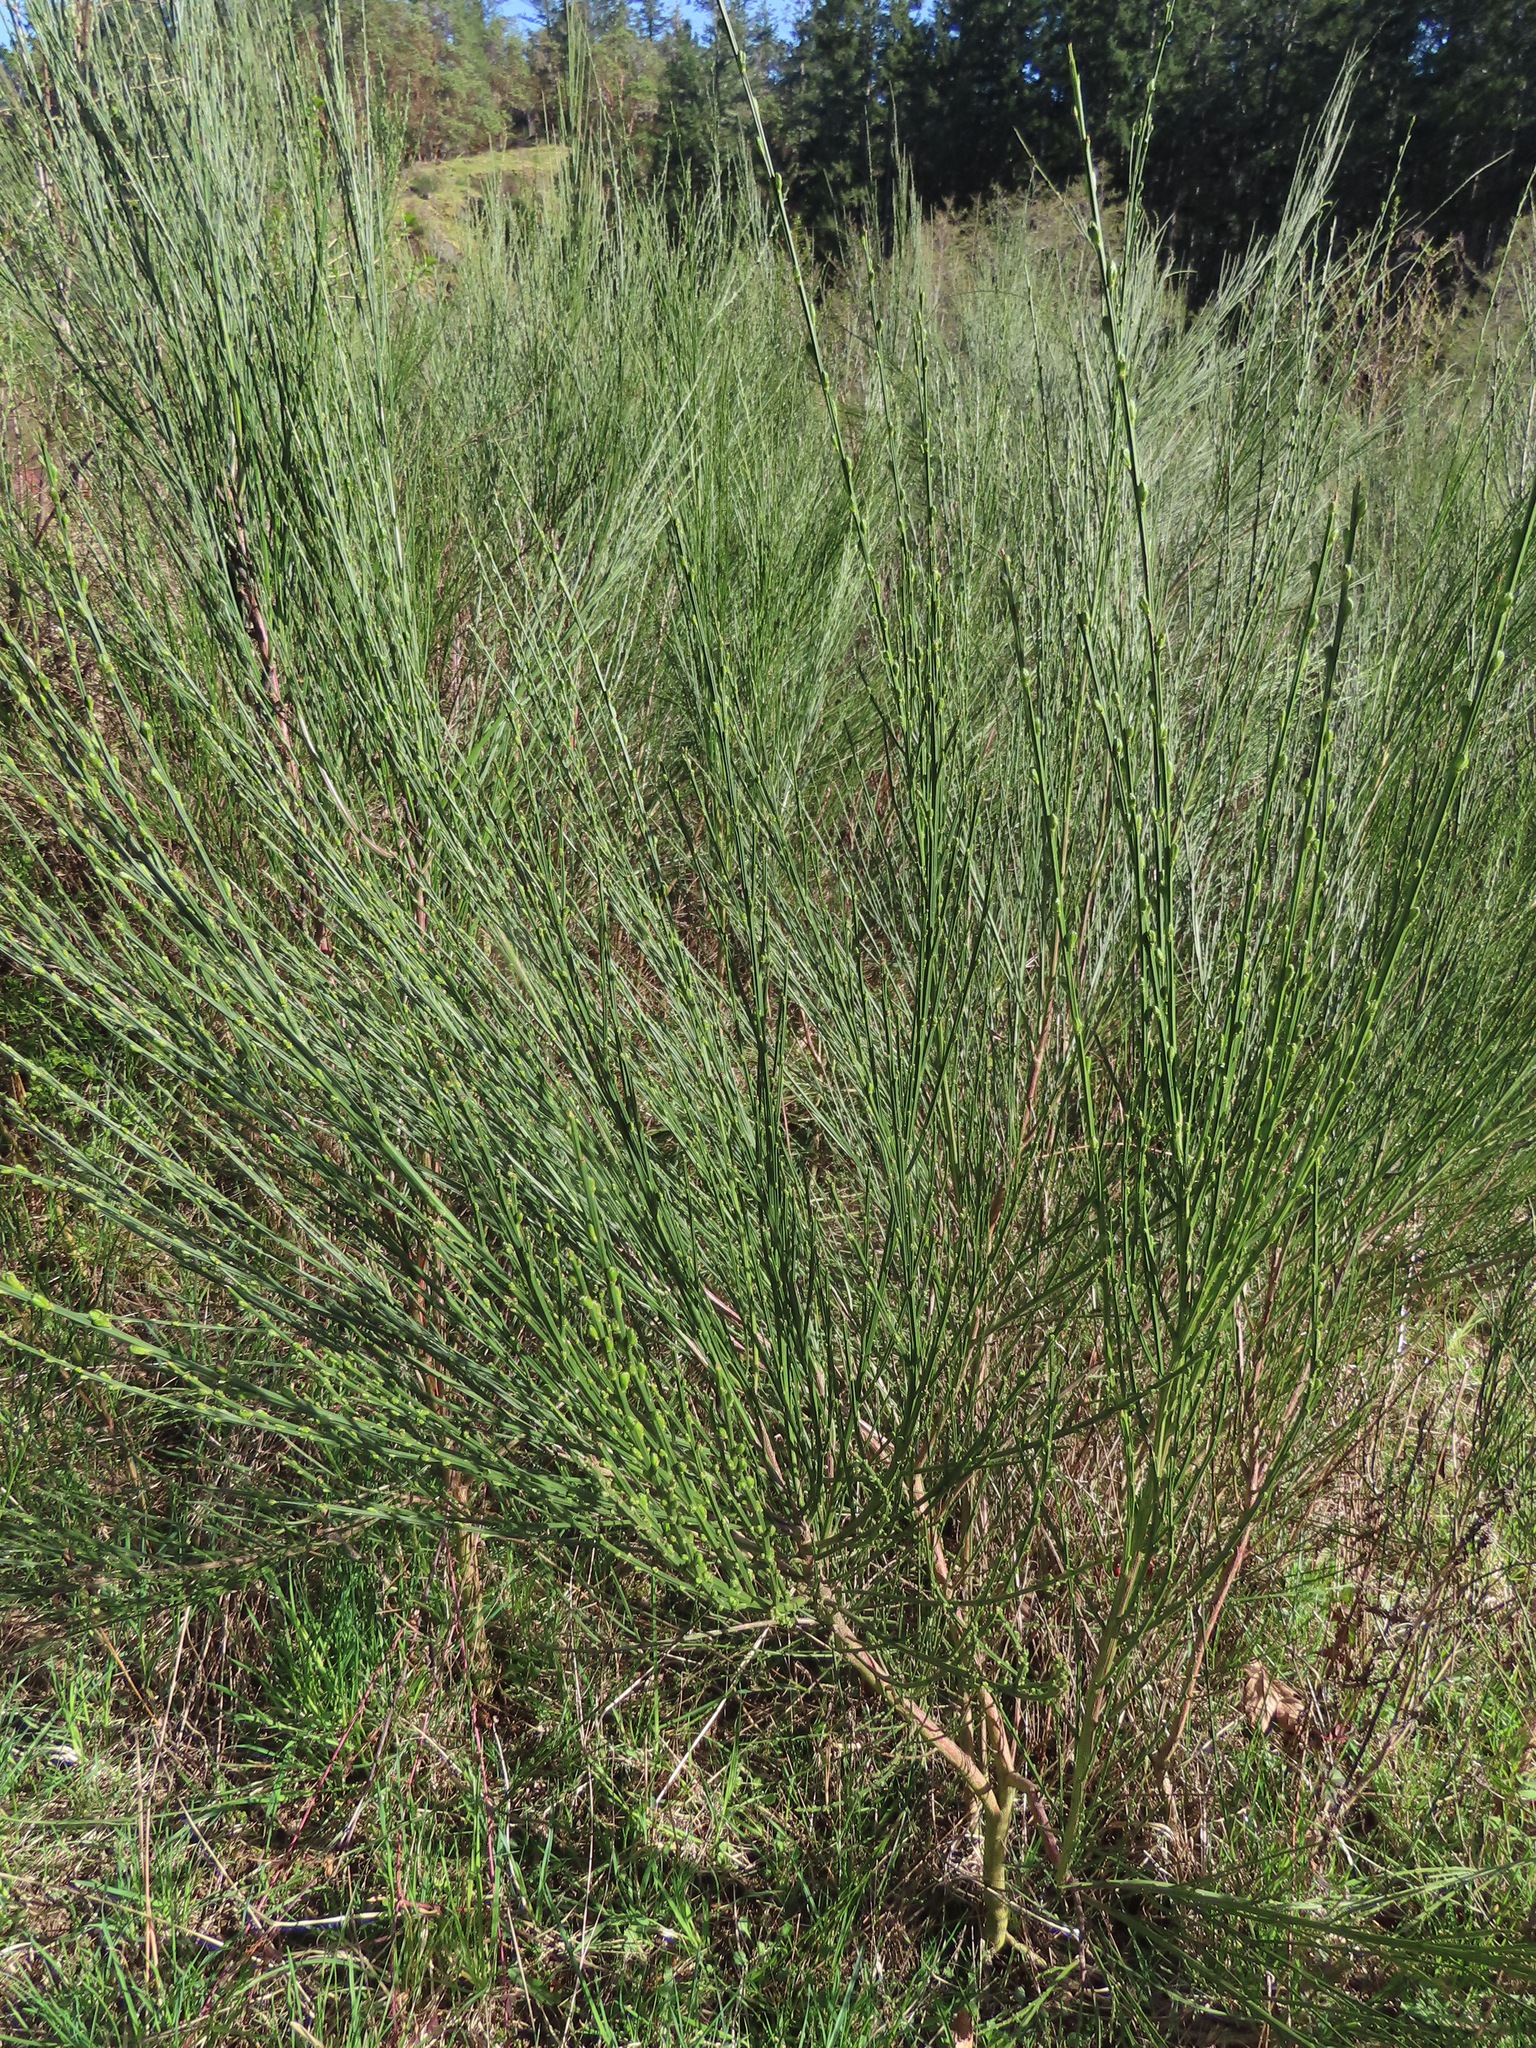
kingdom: Plantae
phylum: Tracheophyta
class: Magnoliopsida
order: Fabales
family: Fabaceae
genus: Cytisus
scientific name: Cytisus scoparius
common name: Scotch broom
